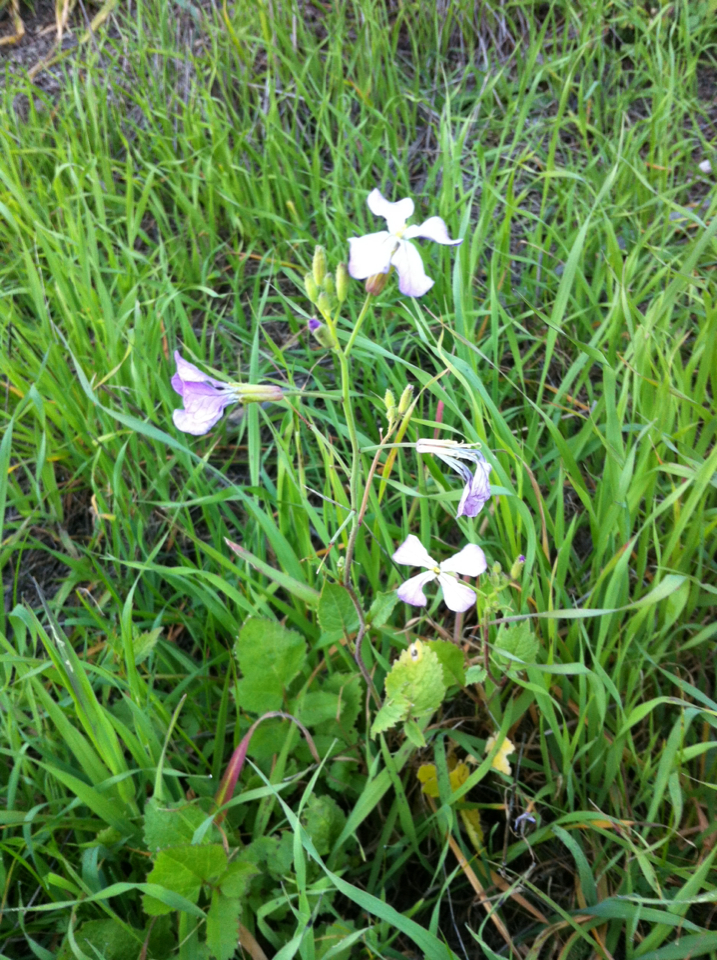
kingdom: Plantae
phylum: Tracheophyta
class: Magnoliopsida
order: Brassicales
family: Brassicaceae
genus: Raphanus
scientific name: Raphanus sativus
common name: Cultivated radish
